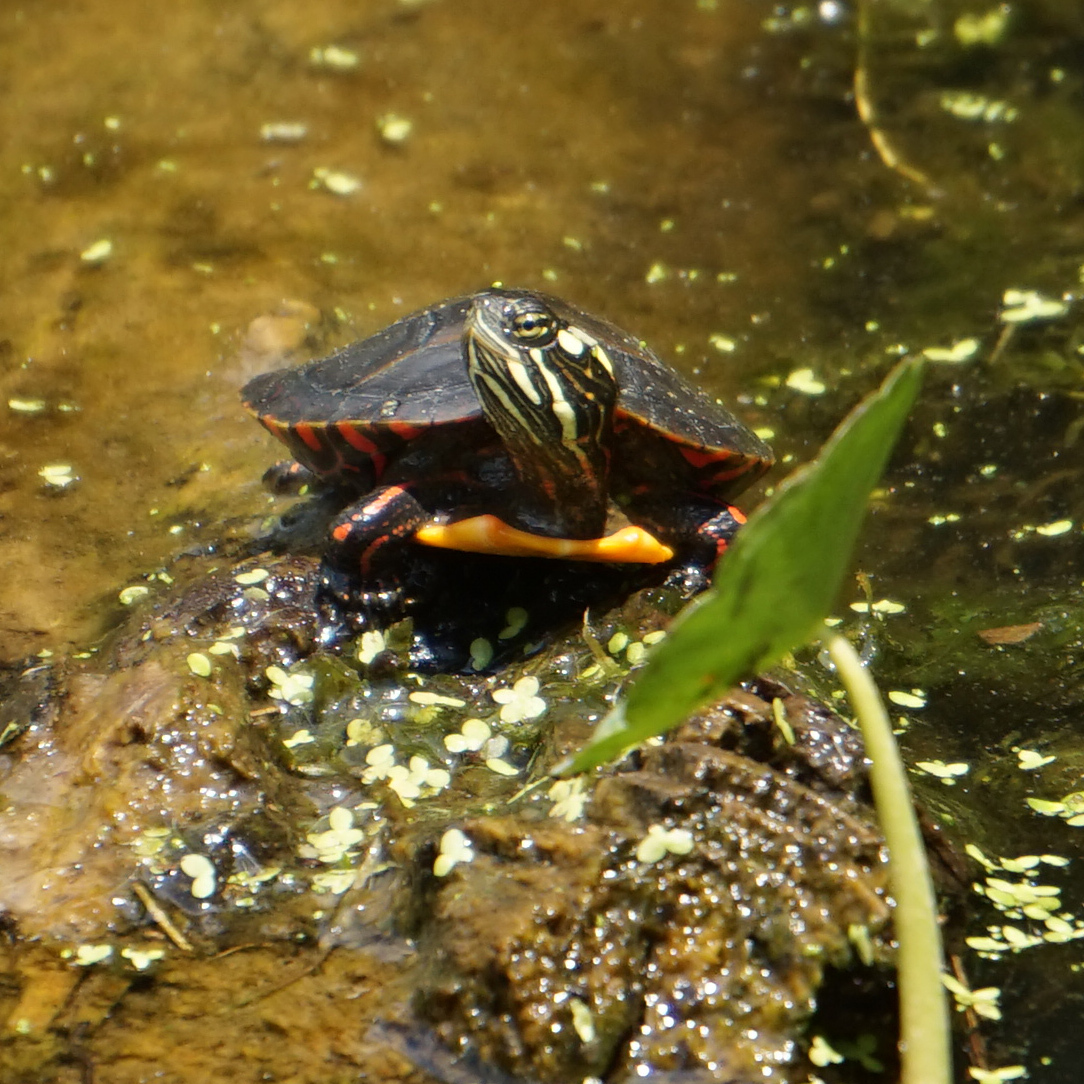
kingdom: Animalia
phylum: Chordata
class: Testudines
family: Emydidae
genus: Chrysemys
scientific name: Chrysemys picta
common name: Painted turtle
